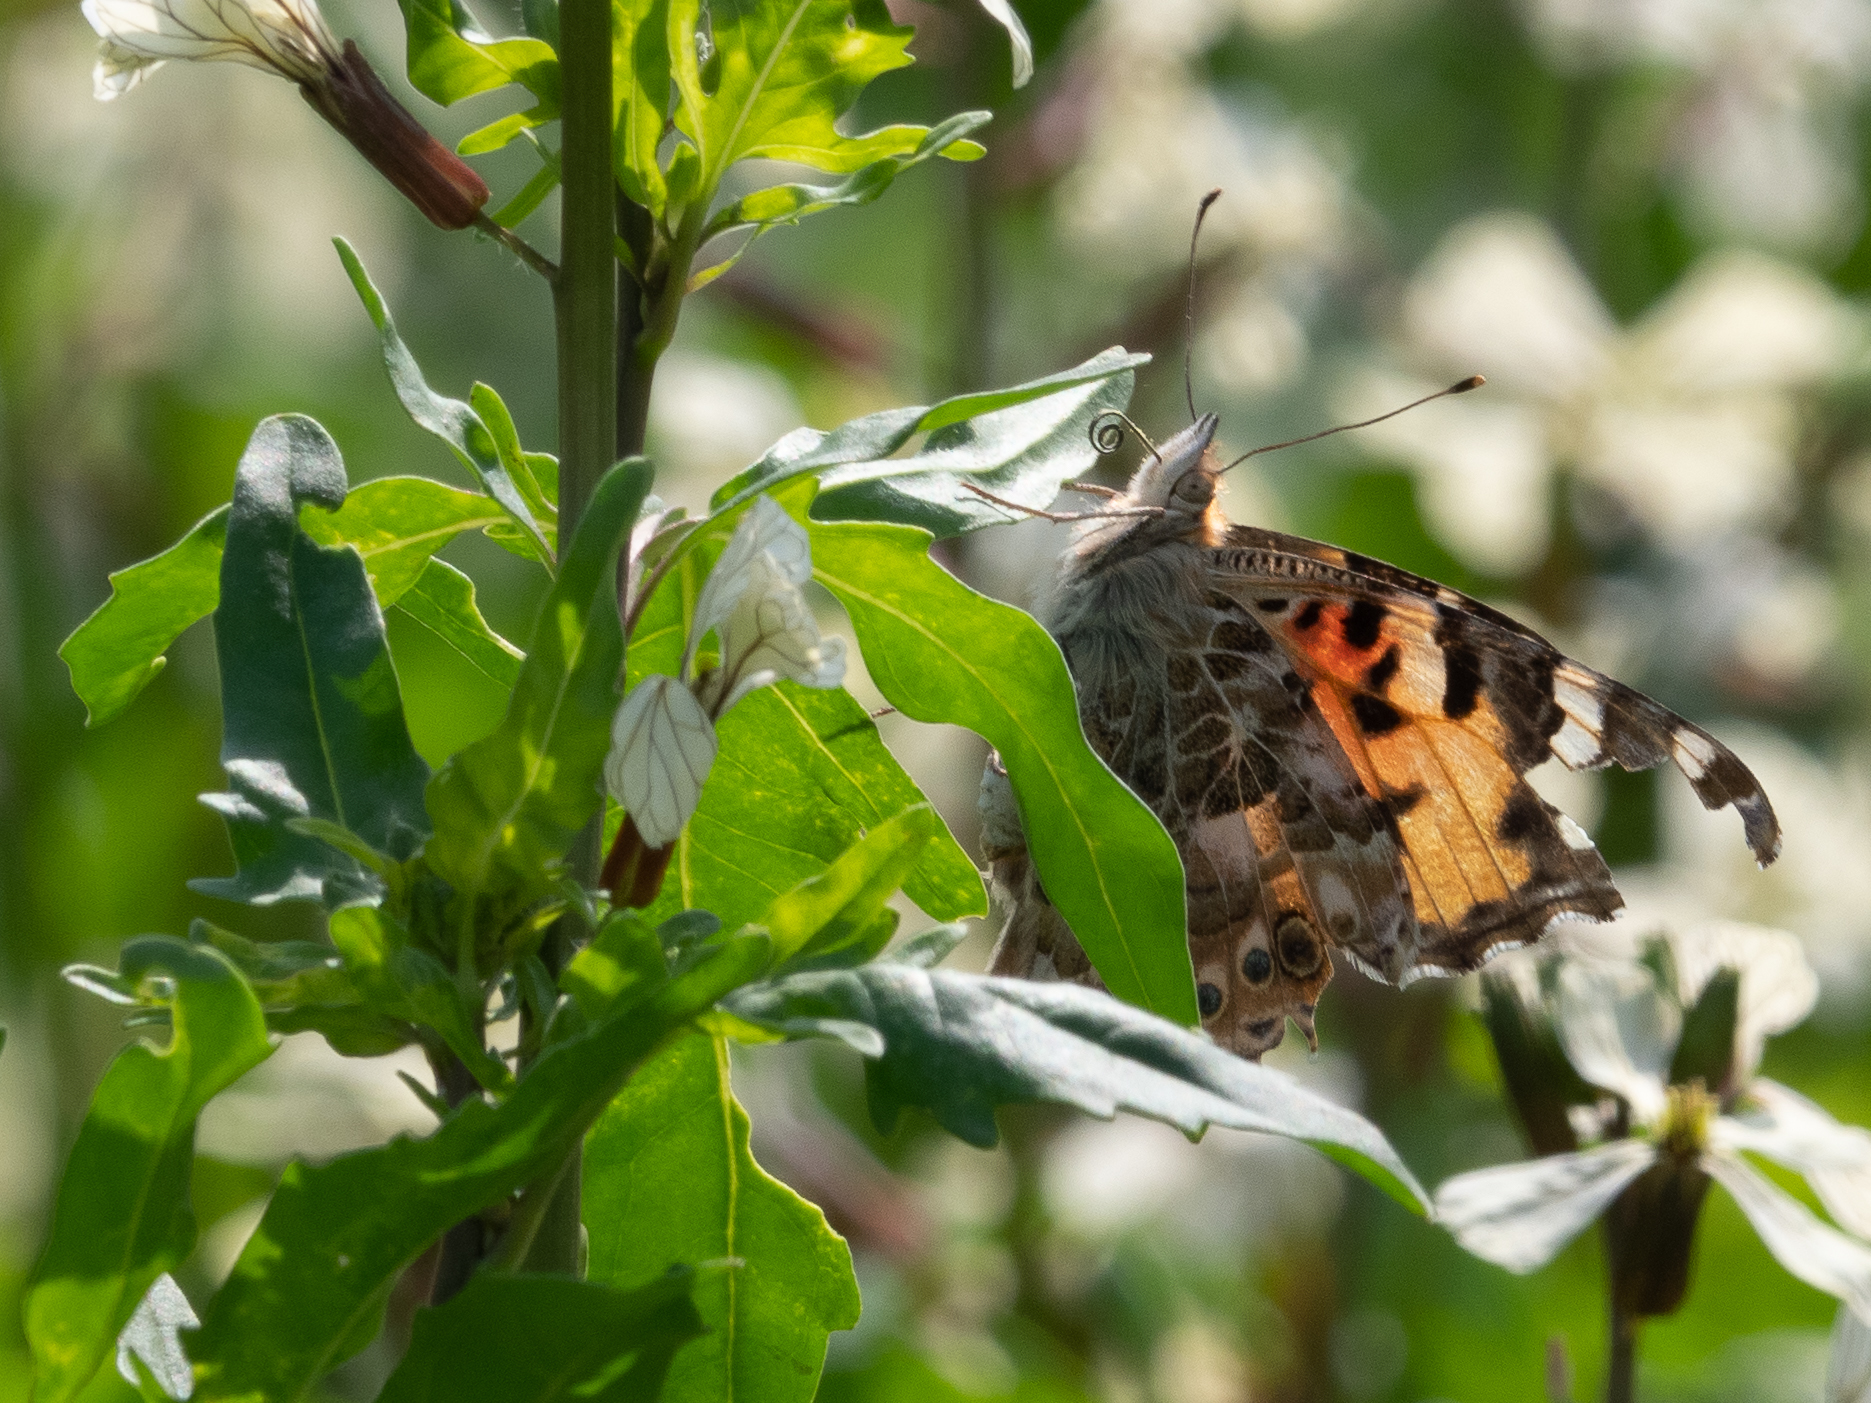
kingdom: Animalia
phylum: Arthropoda
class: Insecta
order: Lepidoptera
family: Nymphalidae
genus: Vanessa
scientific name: Vanessa cardui
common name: Painted lady
